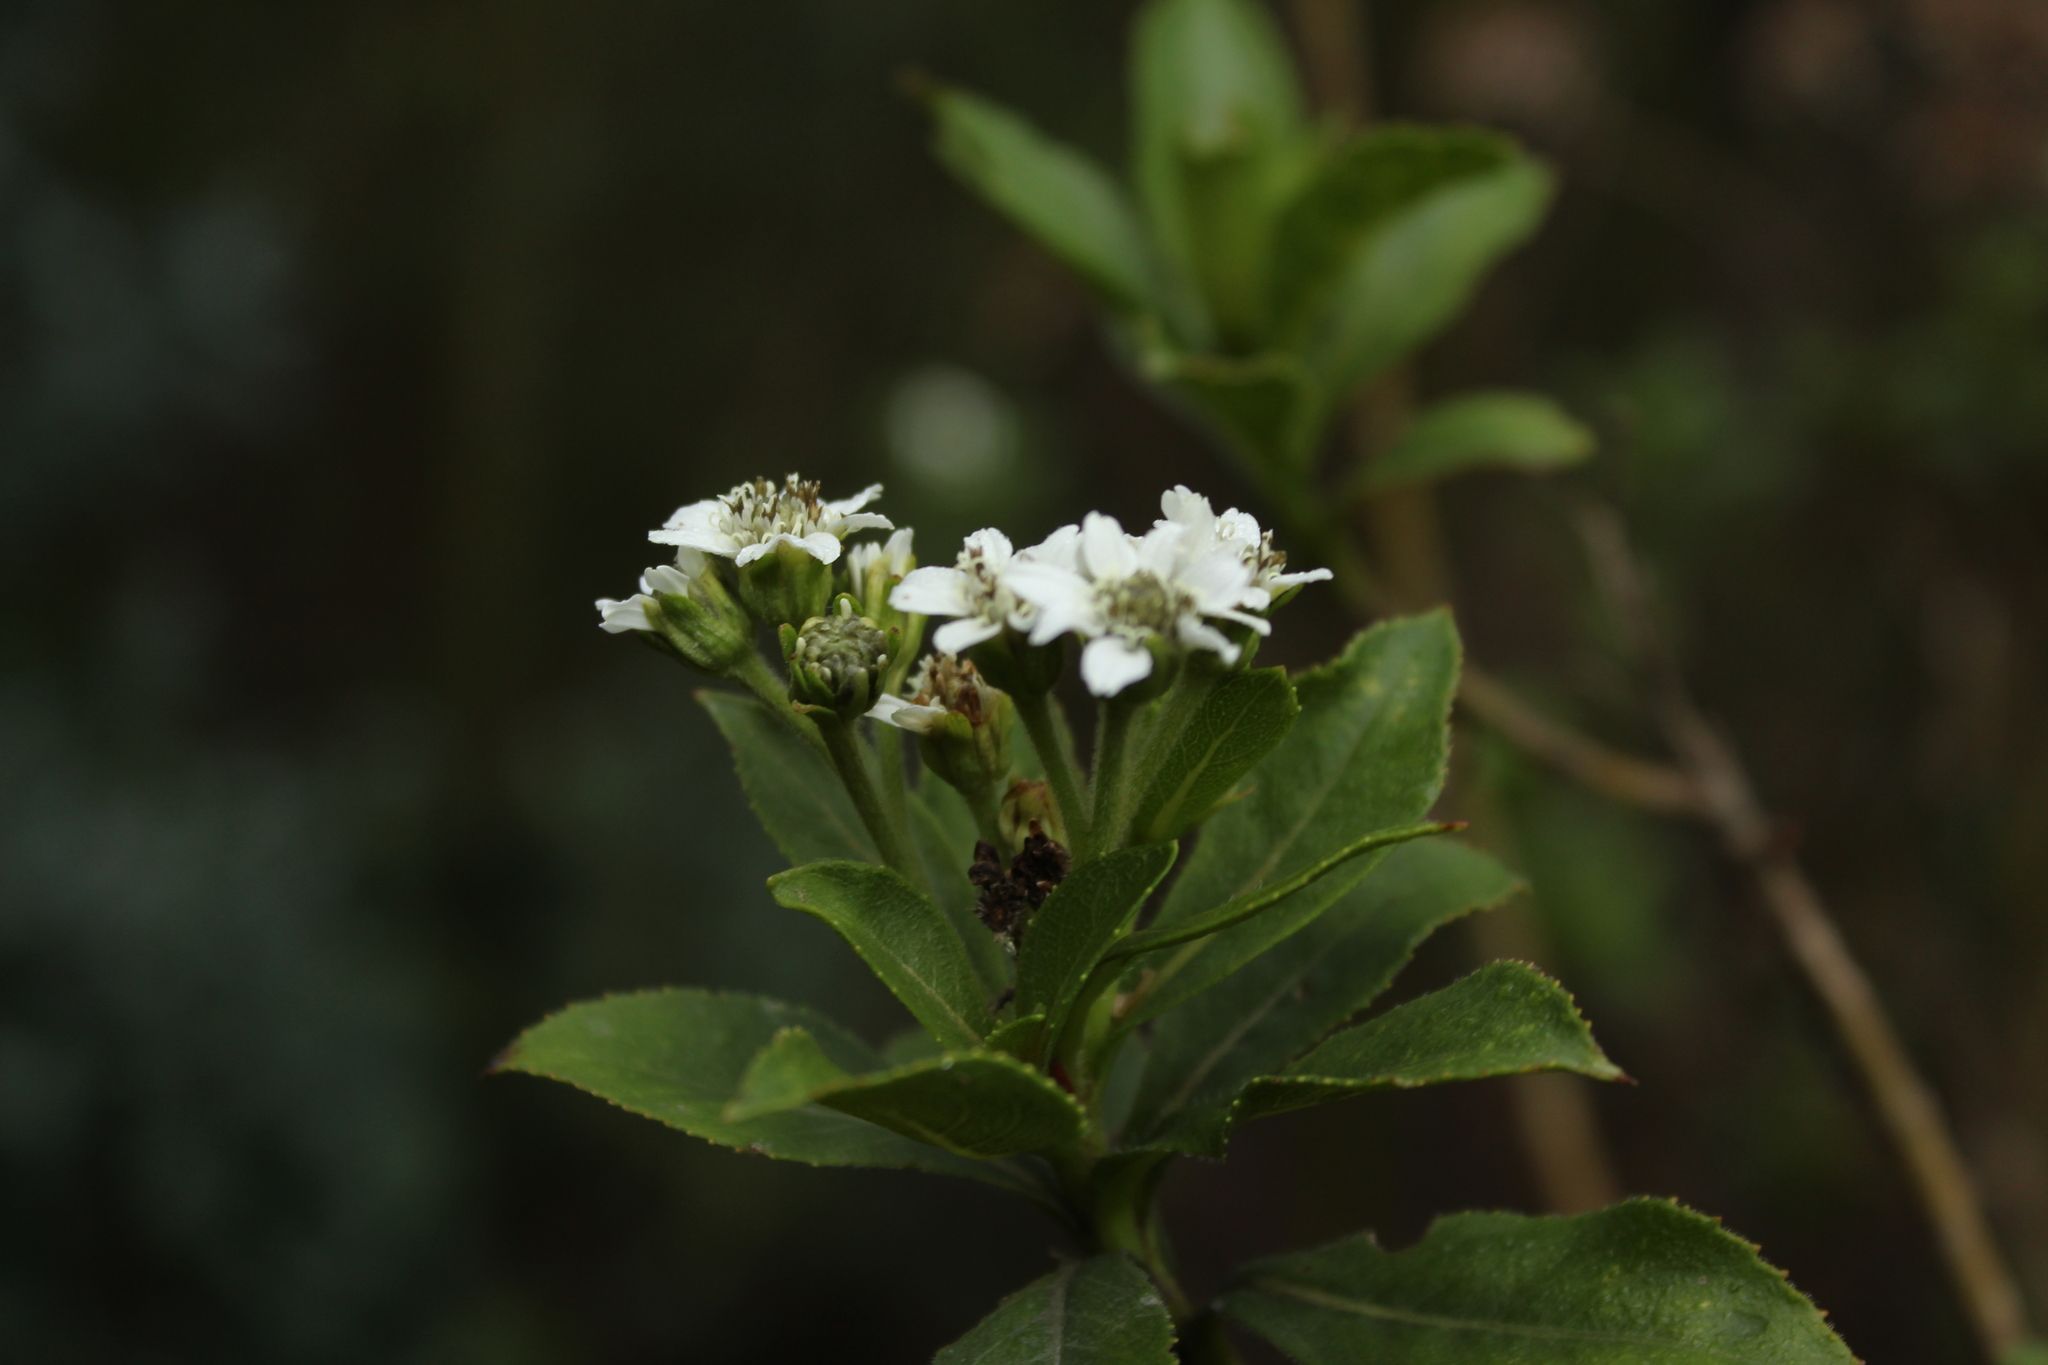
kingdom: Plantae
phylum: Tracheophyta
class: Magnoliopsida
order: Asterales
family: Asteraceae
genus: Verbesina
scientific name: Verbesina centroboyacana
